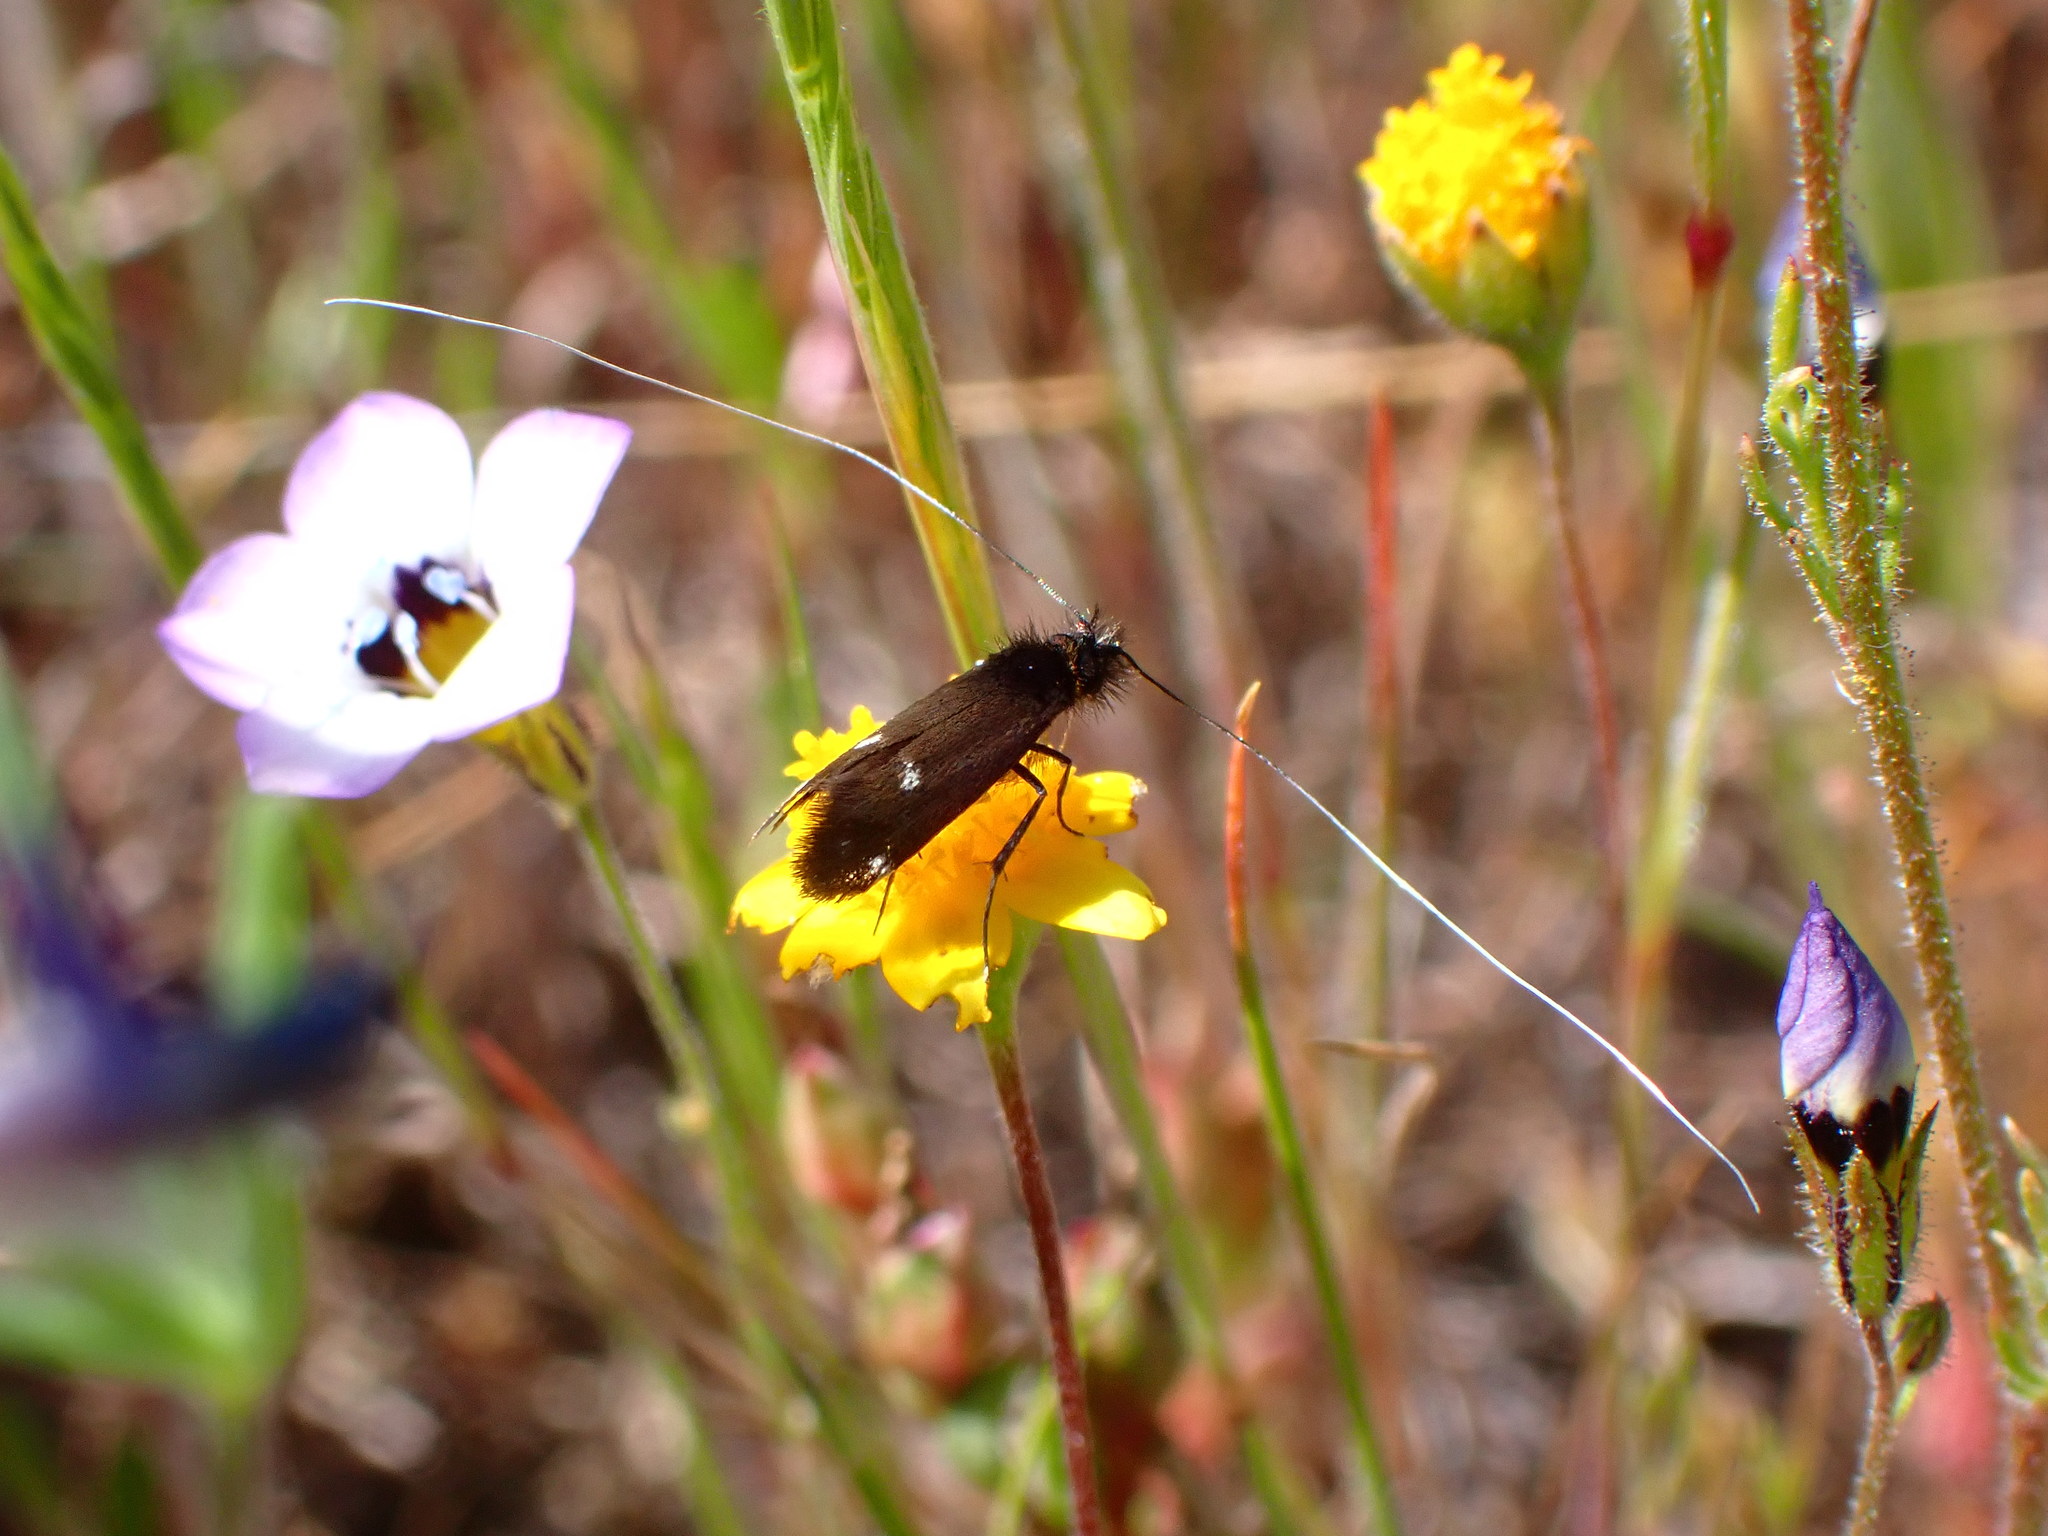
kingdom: Animalia
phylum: Arthropoda
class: Insecta
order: Lepidoptera
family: Adelidae
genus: Adela
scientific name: Adela flammeusella
